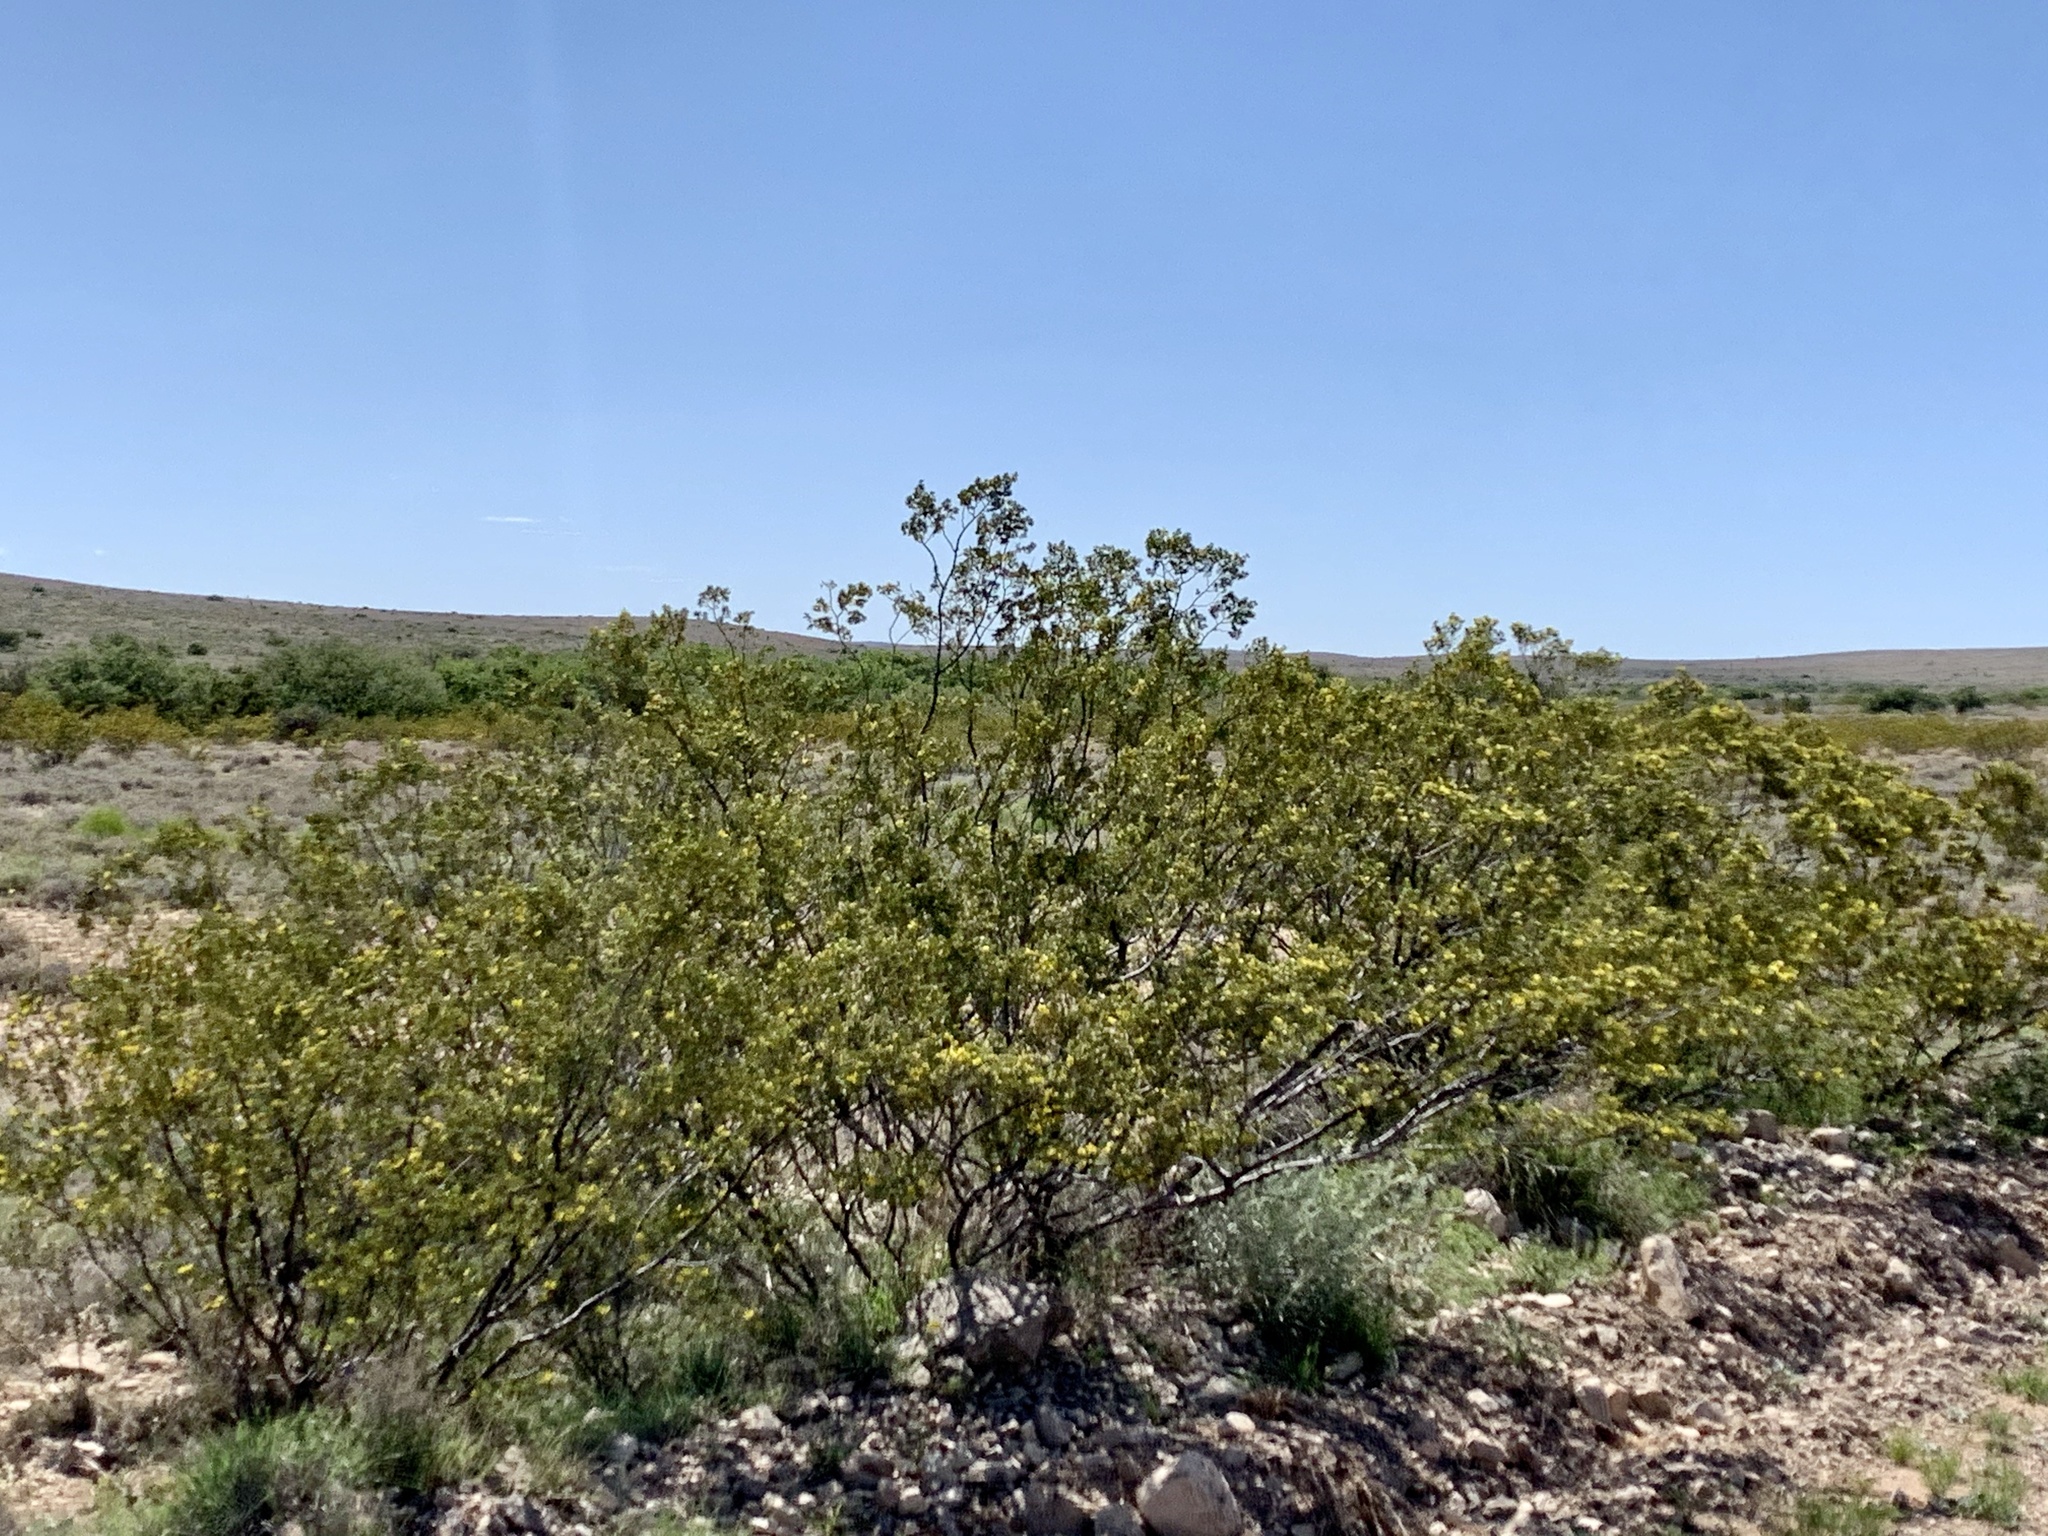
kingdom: Plantae
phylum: Tracheophyta
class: Magnoliopsida
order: Zygophyllales
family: Zygophyllaceae
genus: Larrea
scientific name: Larrea tridentata
